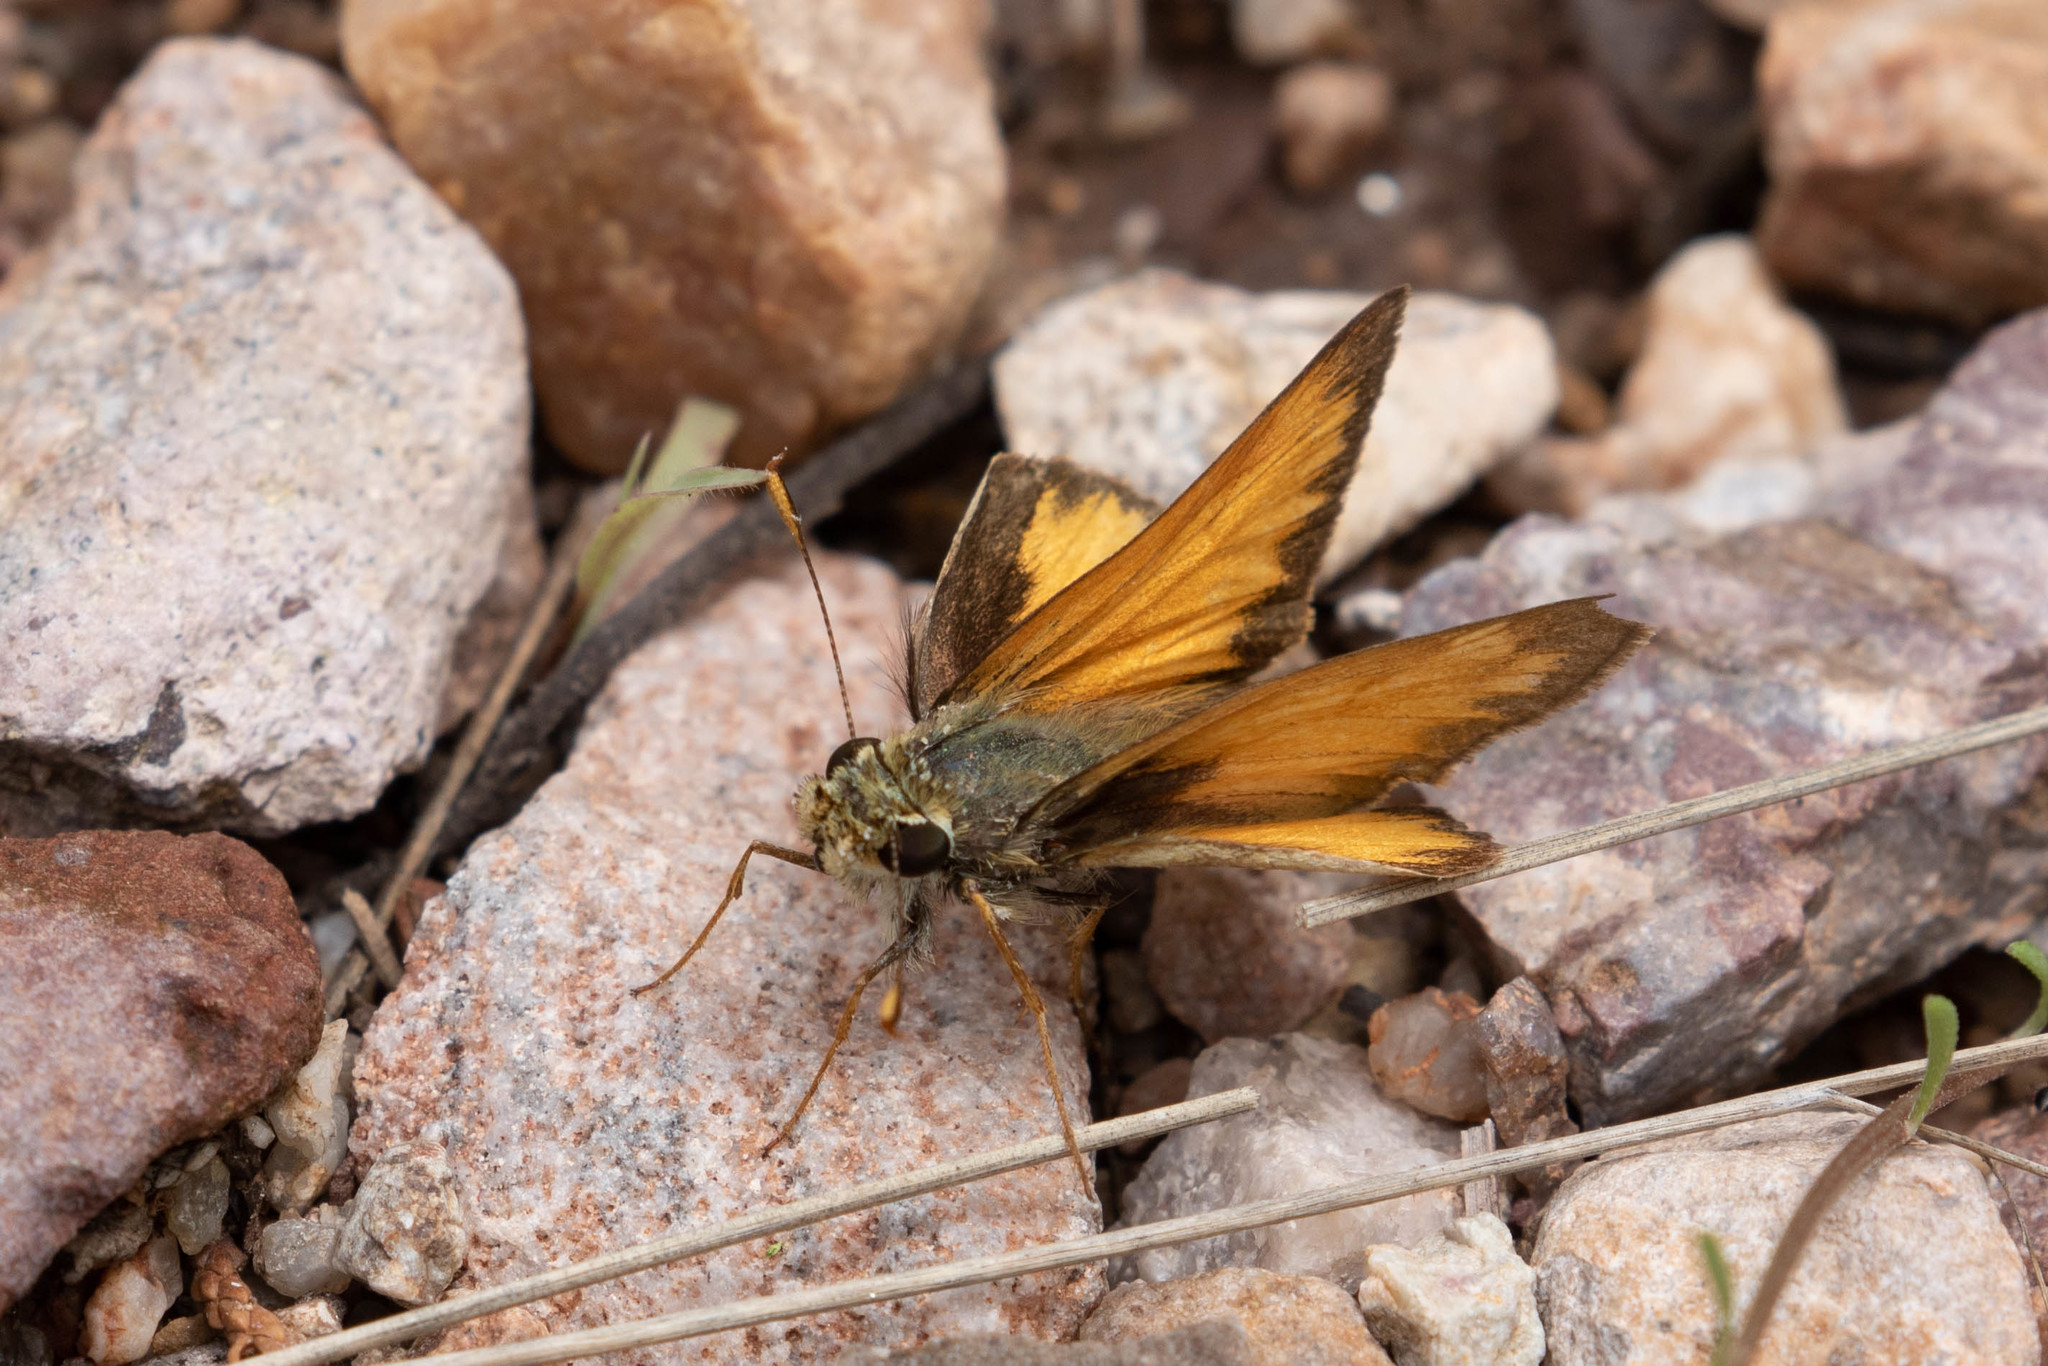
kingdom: Animalia
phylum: Arthropoda
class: Insecta
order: Lepidoptera
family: Hesperiidae
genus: Lon
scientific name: Lon taxiles
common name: Taxiles skipper
